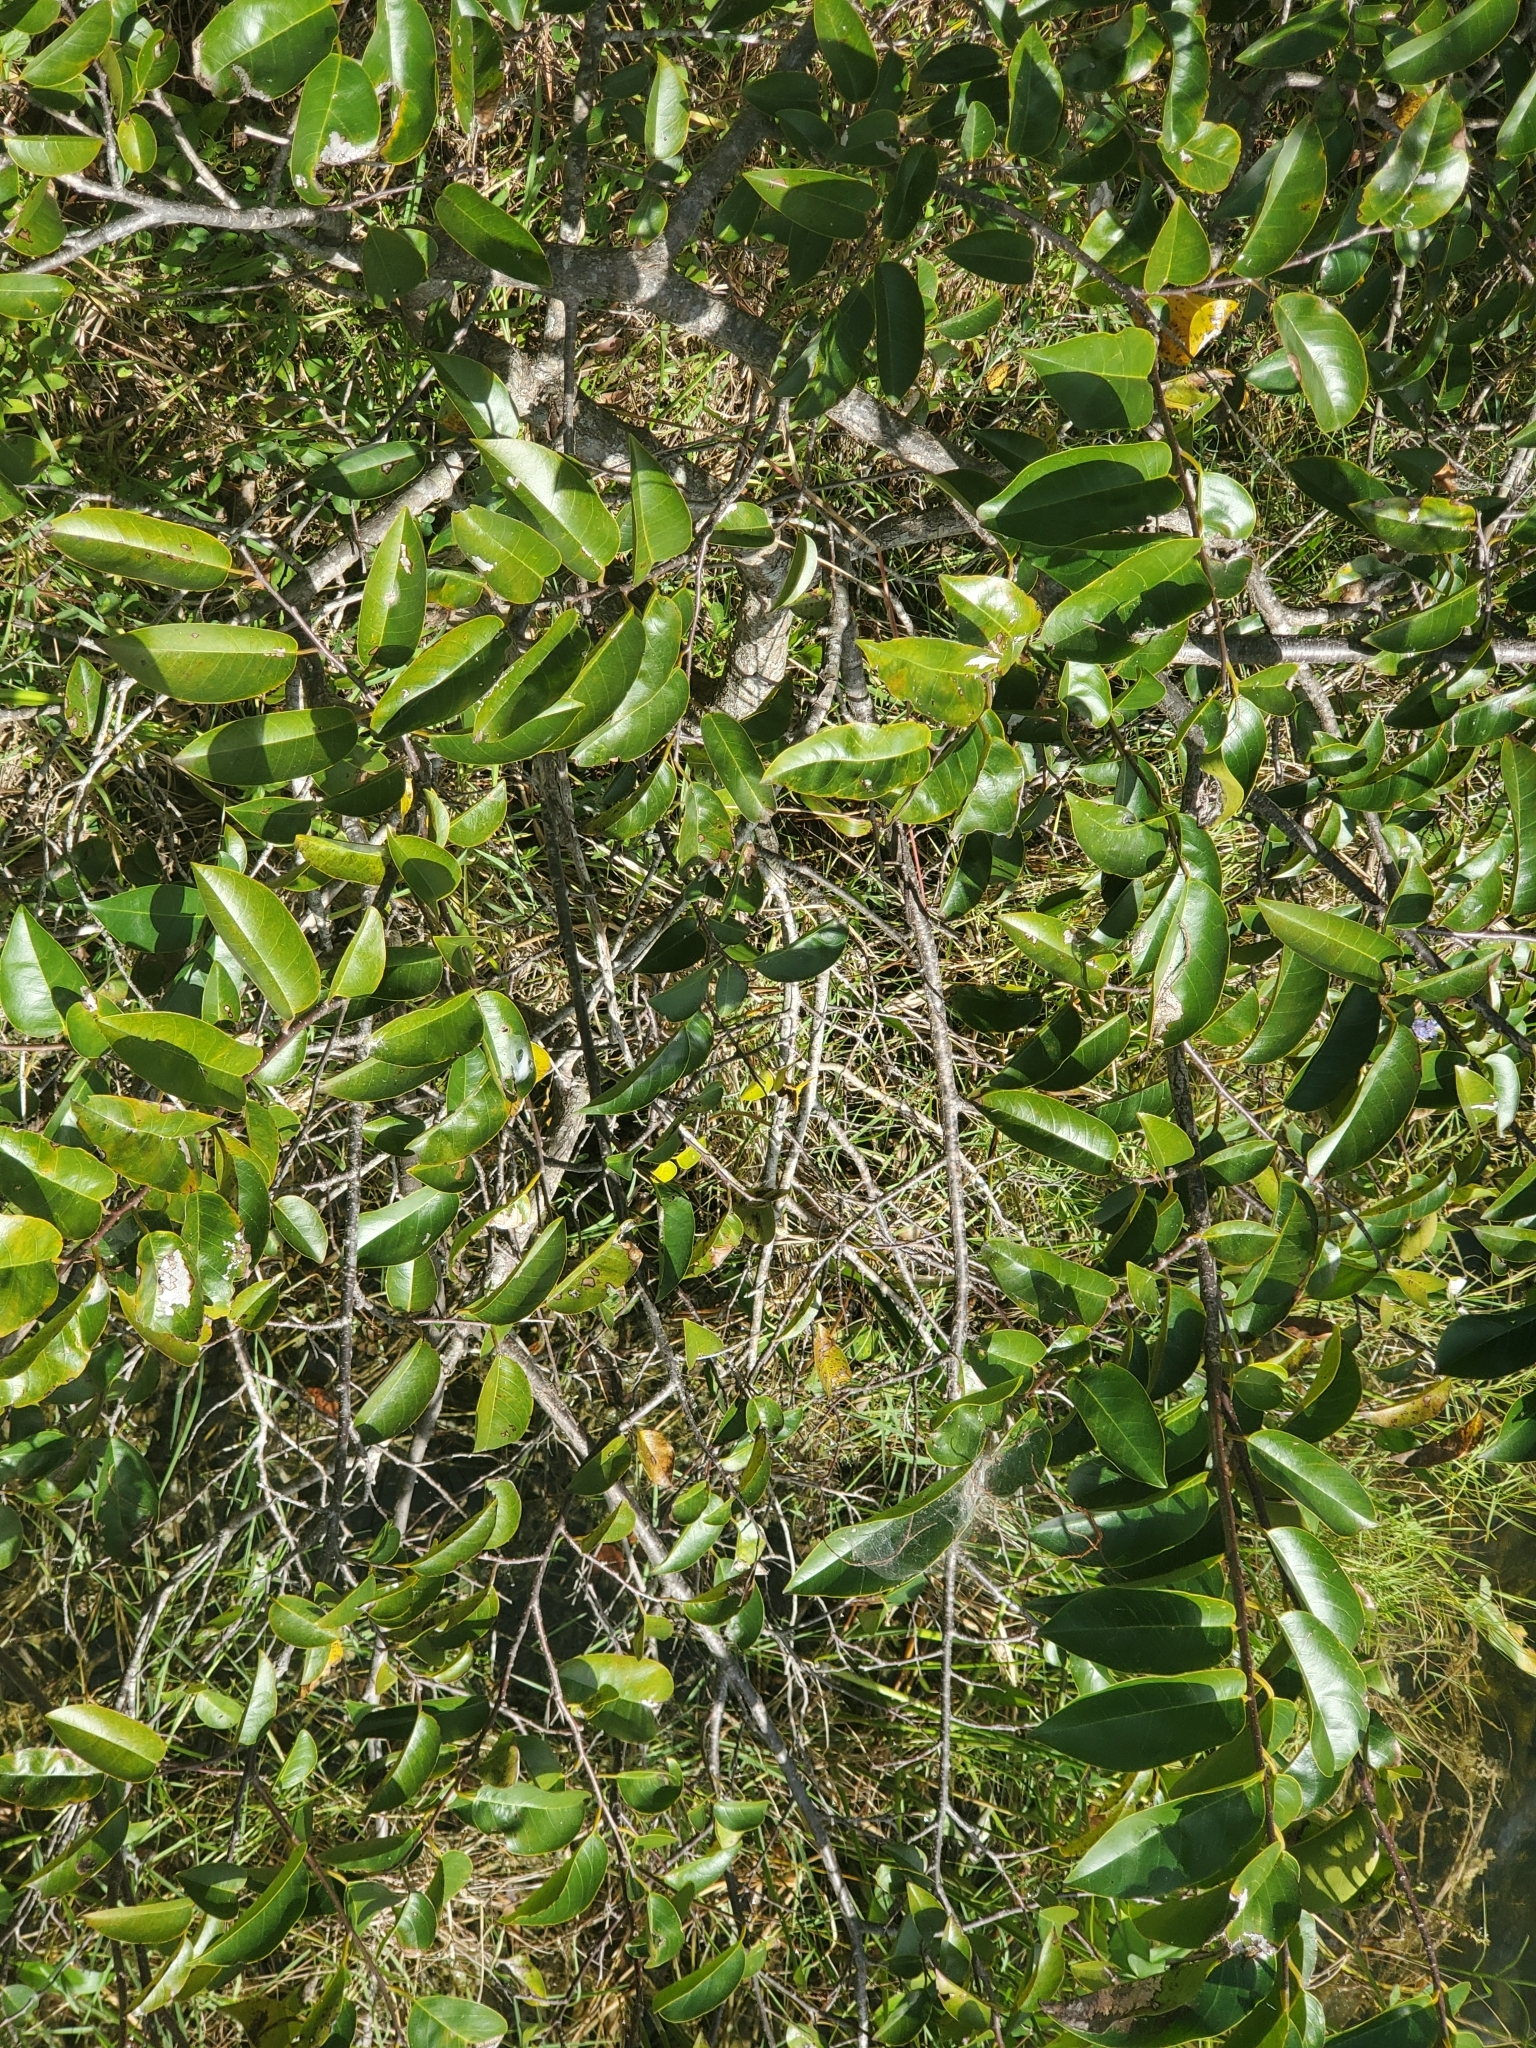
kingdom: Plantae
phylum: Tracheophyta
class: Magnoliopsida
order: Magnoliales
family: Annonaceae
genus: Annona
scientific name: Annona glabra
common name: Monkey apple
